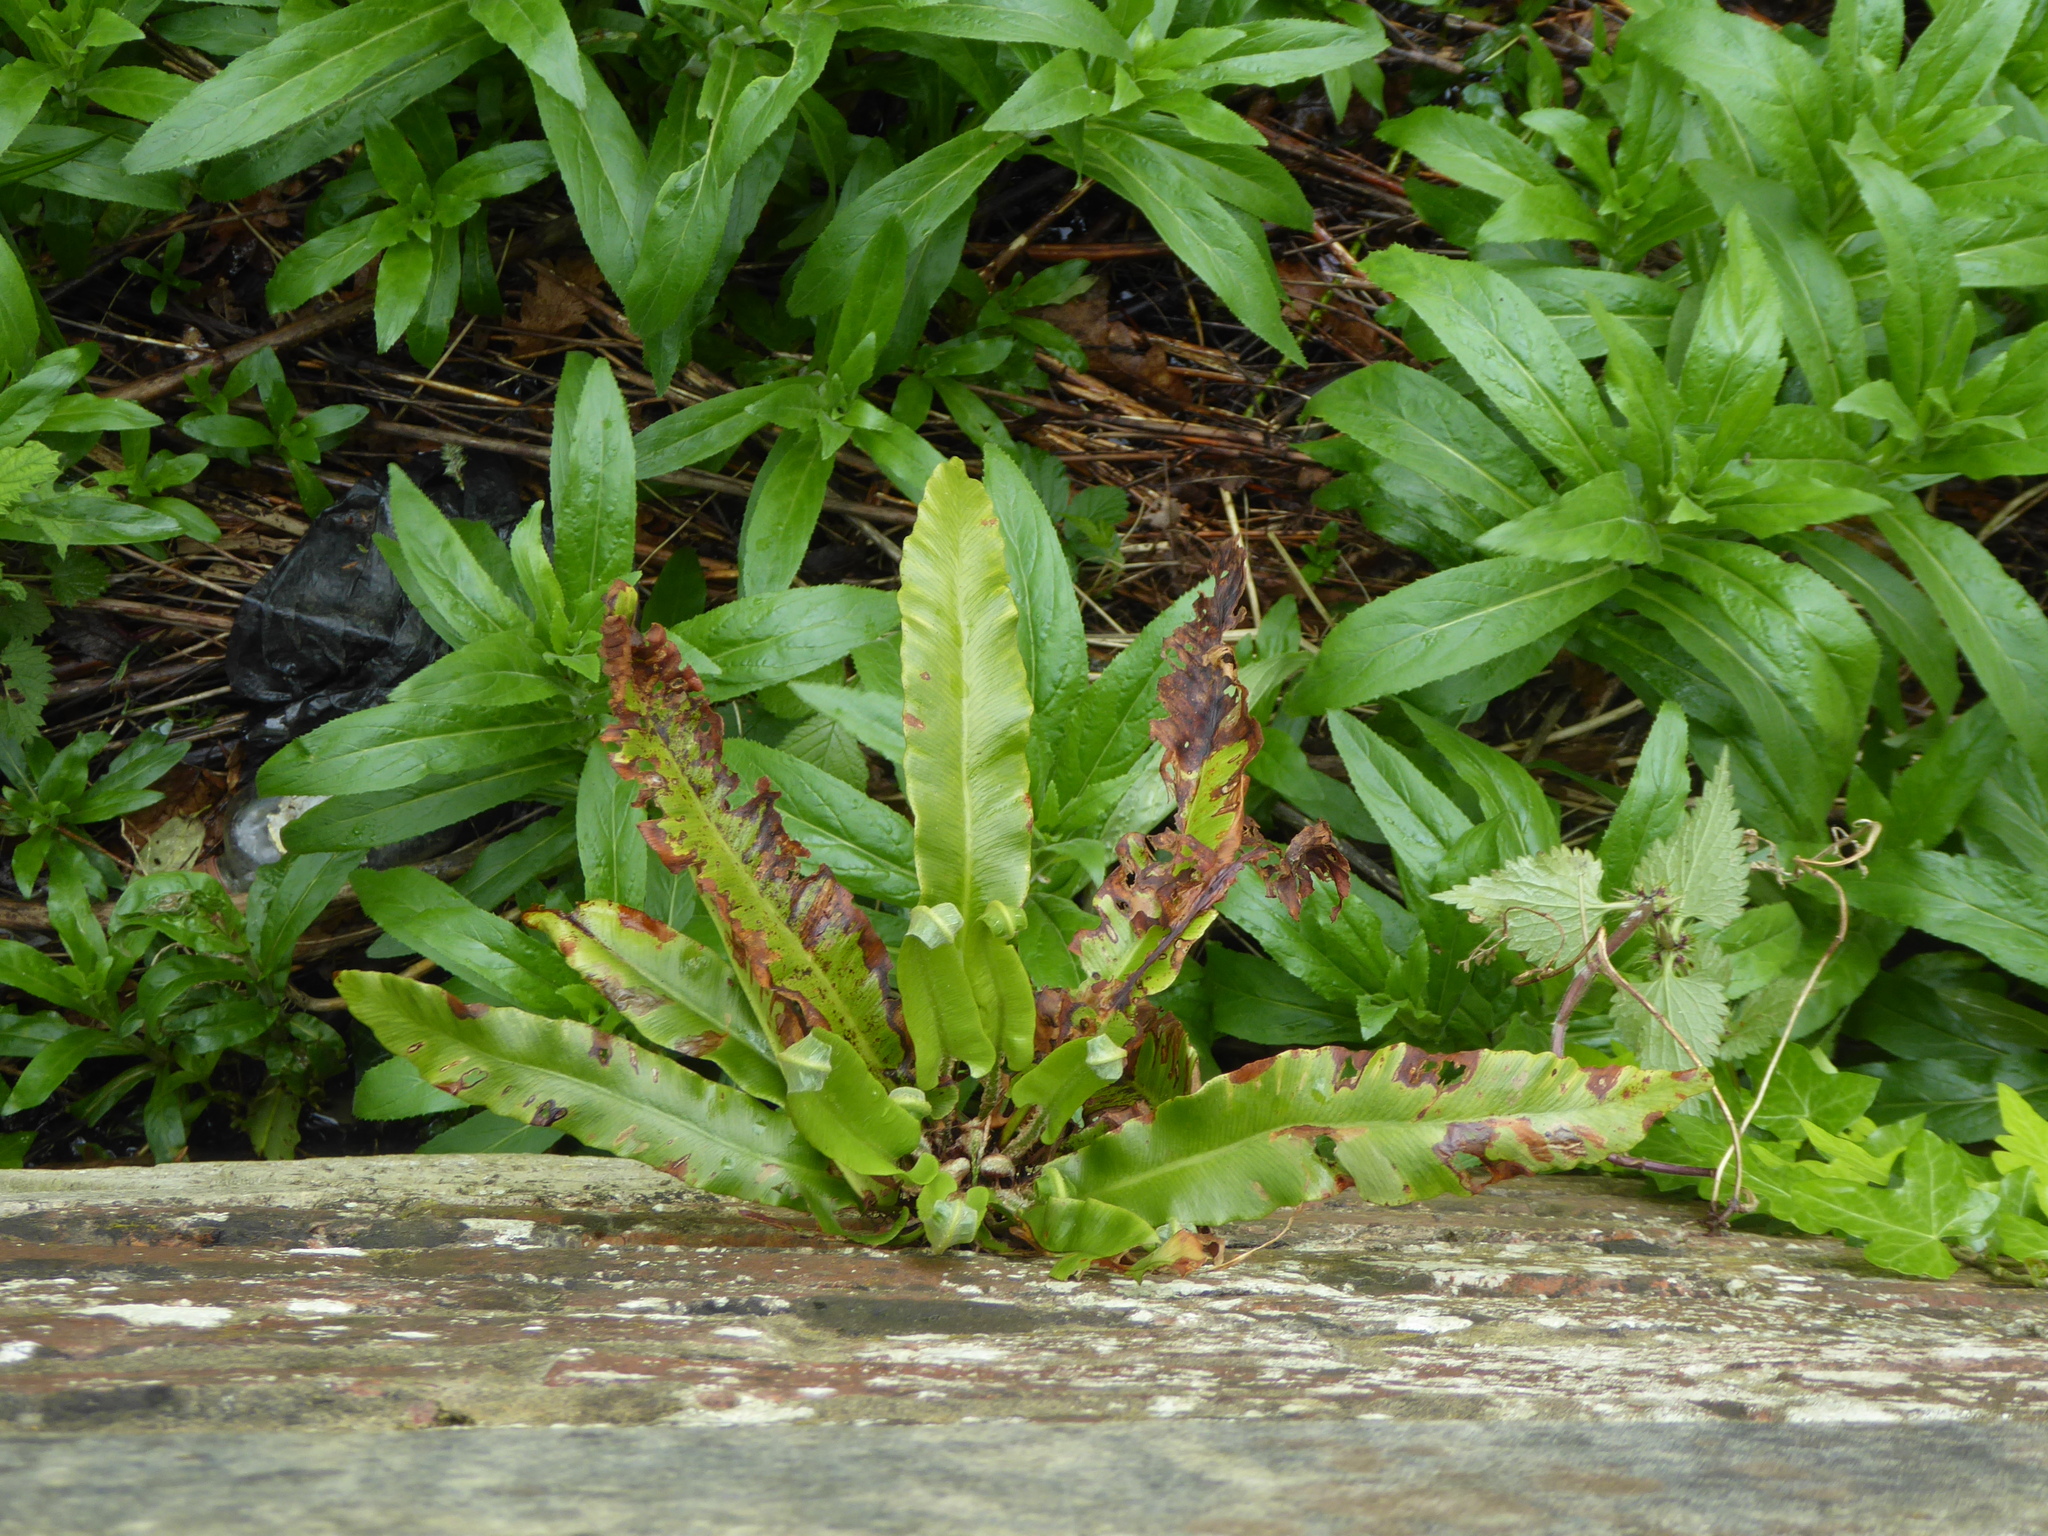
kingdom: Plantae
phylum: Tracheophyta
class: Polypodiopsida
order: Polypodiales
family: Aspleniaceae
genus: Asplenium
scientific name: Asplenium scolopendrium
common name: Hart's-tongue fern
